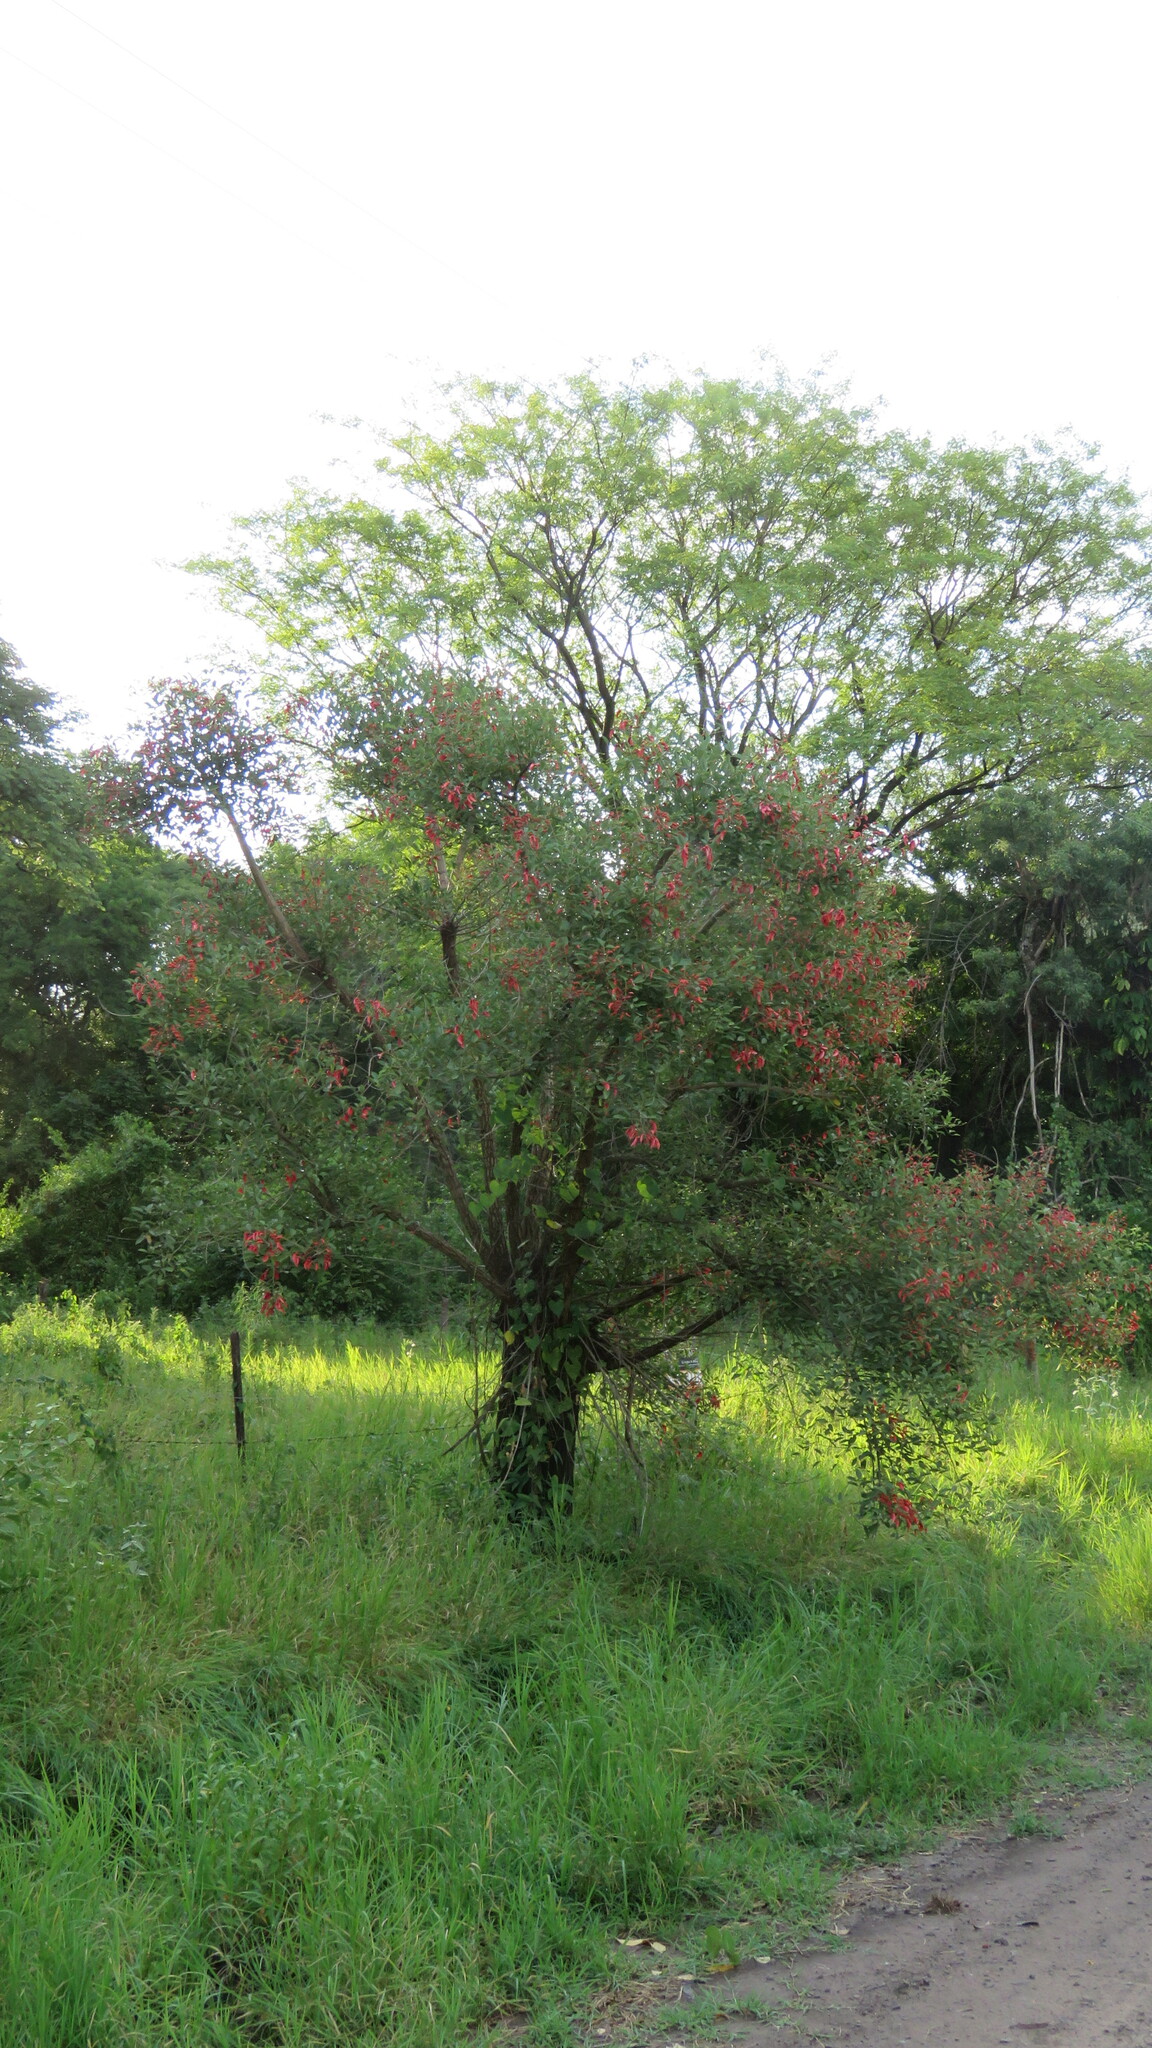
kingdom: Plantae
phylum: Tracheophyta
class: Magnoliopsida
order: Fabales
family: Fabaceae
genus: Erythrina
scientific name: Erythrina crista-galli
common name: Cockspur coral tree
